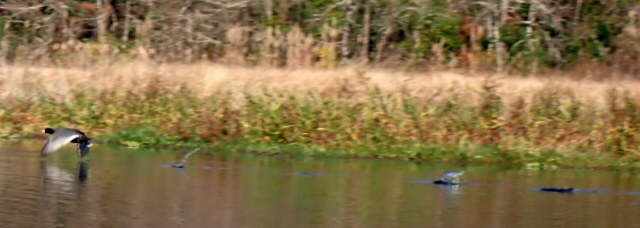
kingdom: Animalia
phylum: Chordata
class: Aves
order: Gruiformes
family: Rallidae
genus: Fulica
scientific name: Fulica americana
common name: American coot
